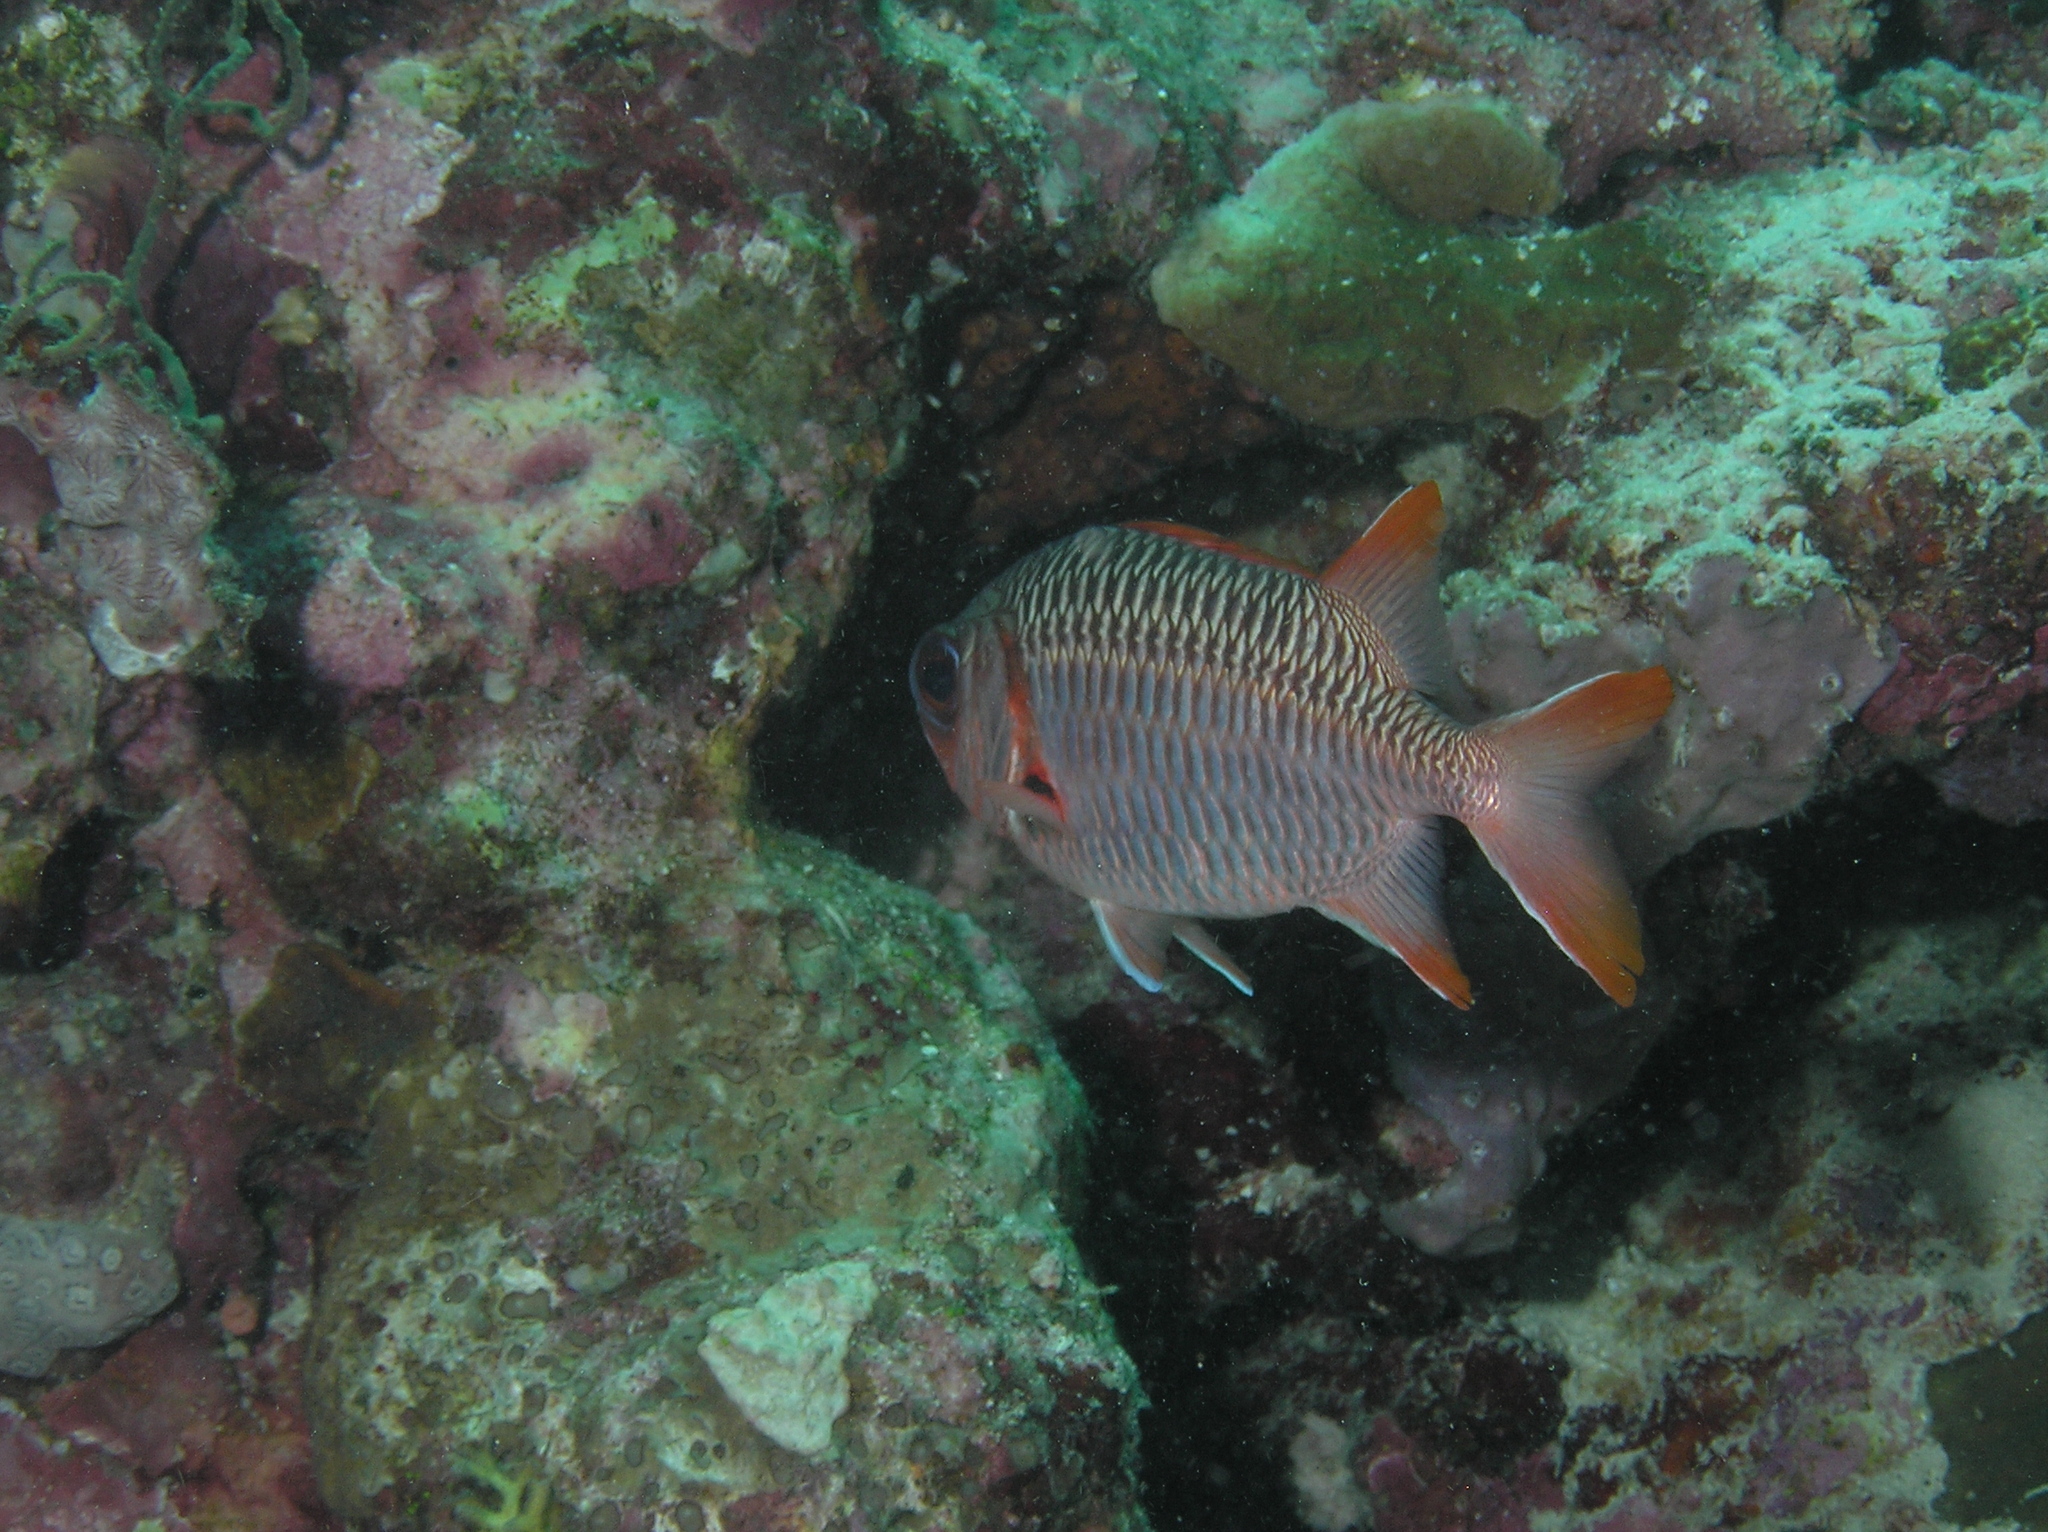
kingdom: Animalia
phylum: Chordata
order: Beryciformes
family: Holocentridae
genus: Myripristis
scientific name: Myripristis violacea
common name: Lattice soldierfish
